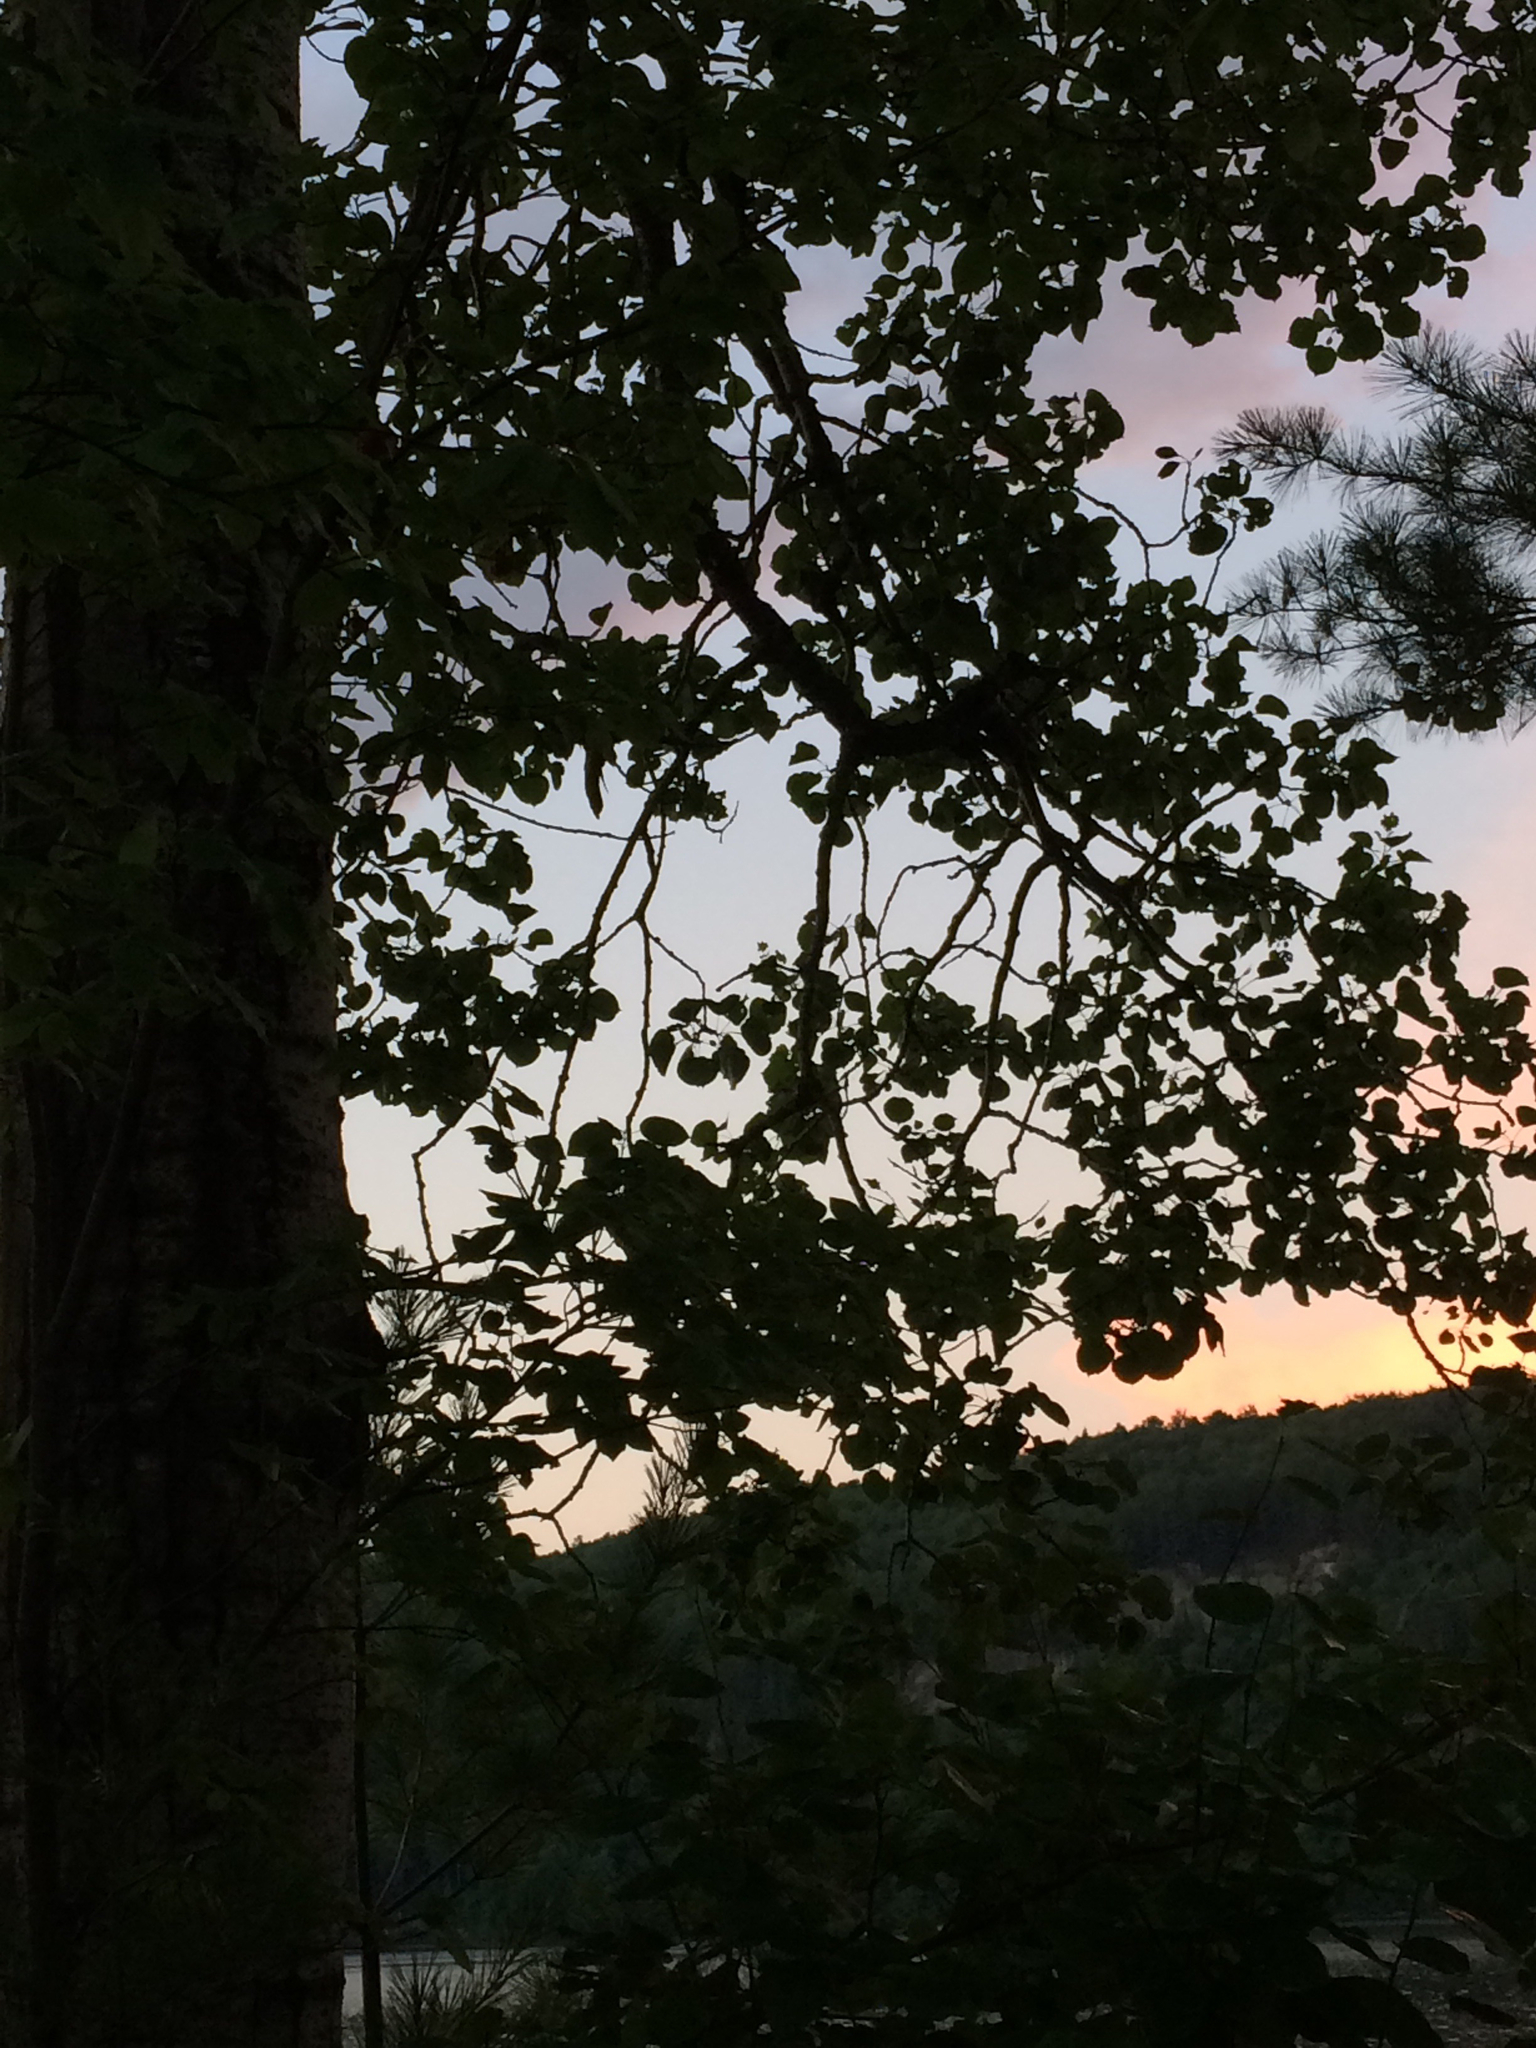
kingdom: Plantae
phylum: Tracheophyta
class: Magnoliopsida
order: Malpighiales
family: Salicaceae
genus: Populus
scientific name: Populus tremuloides
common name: Quaking aspen
